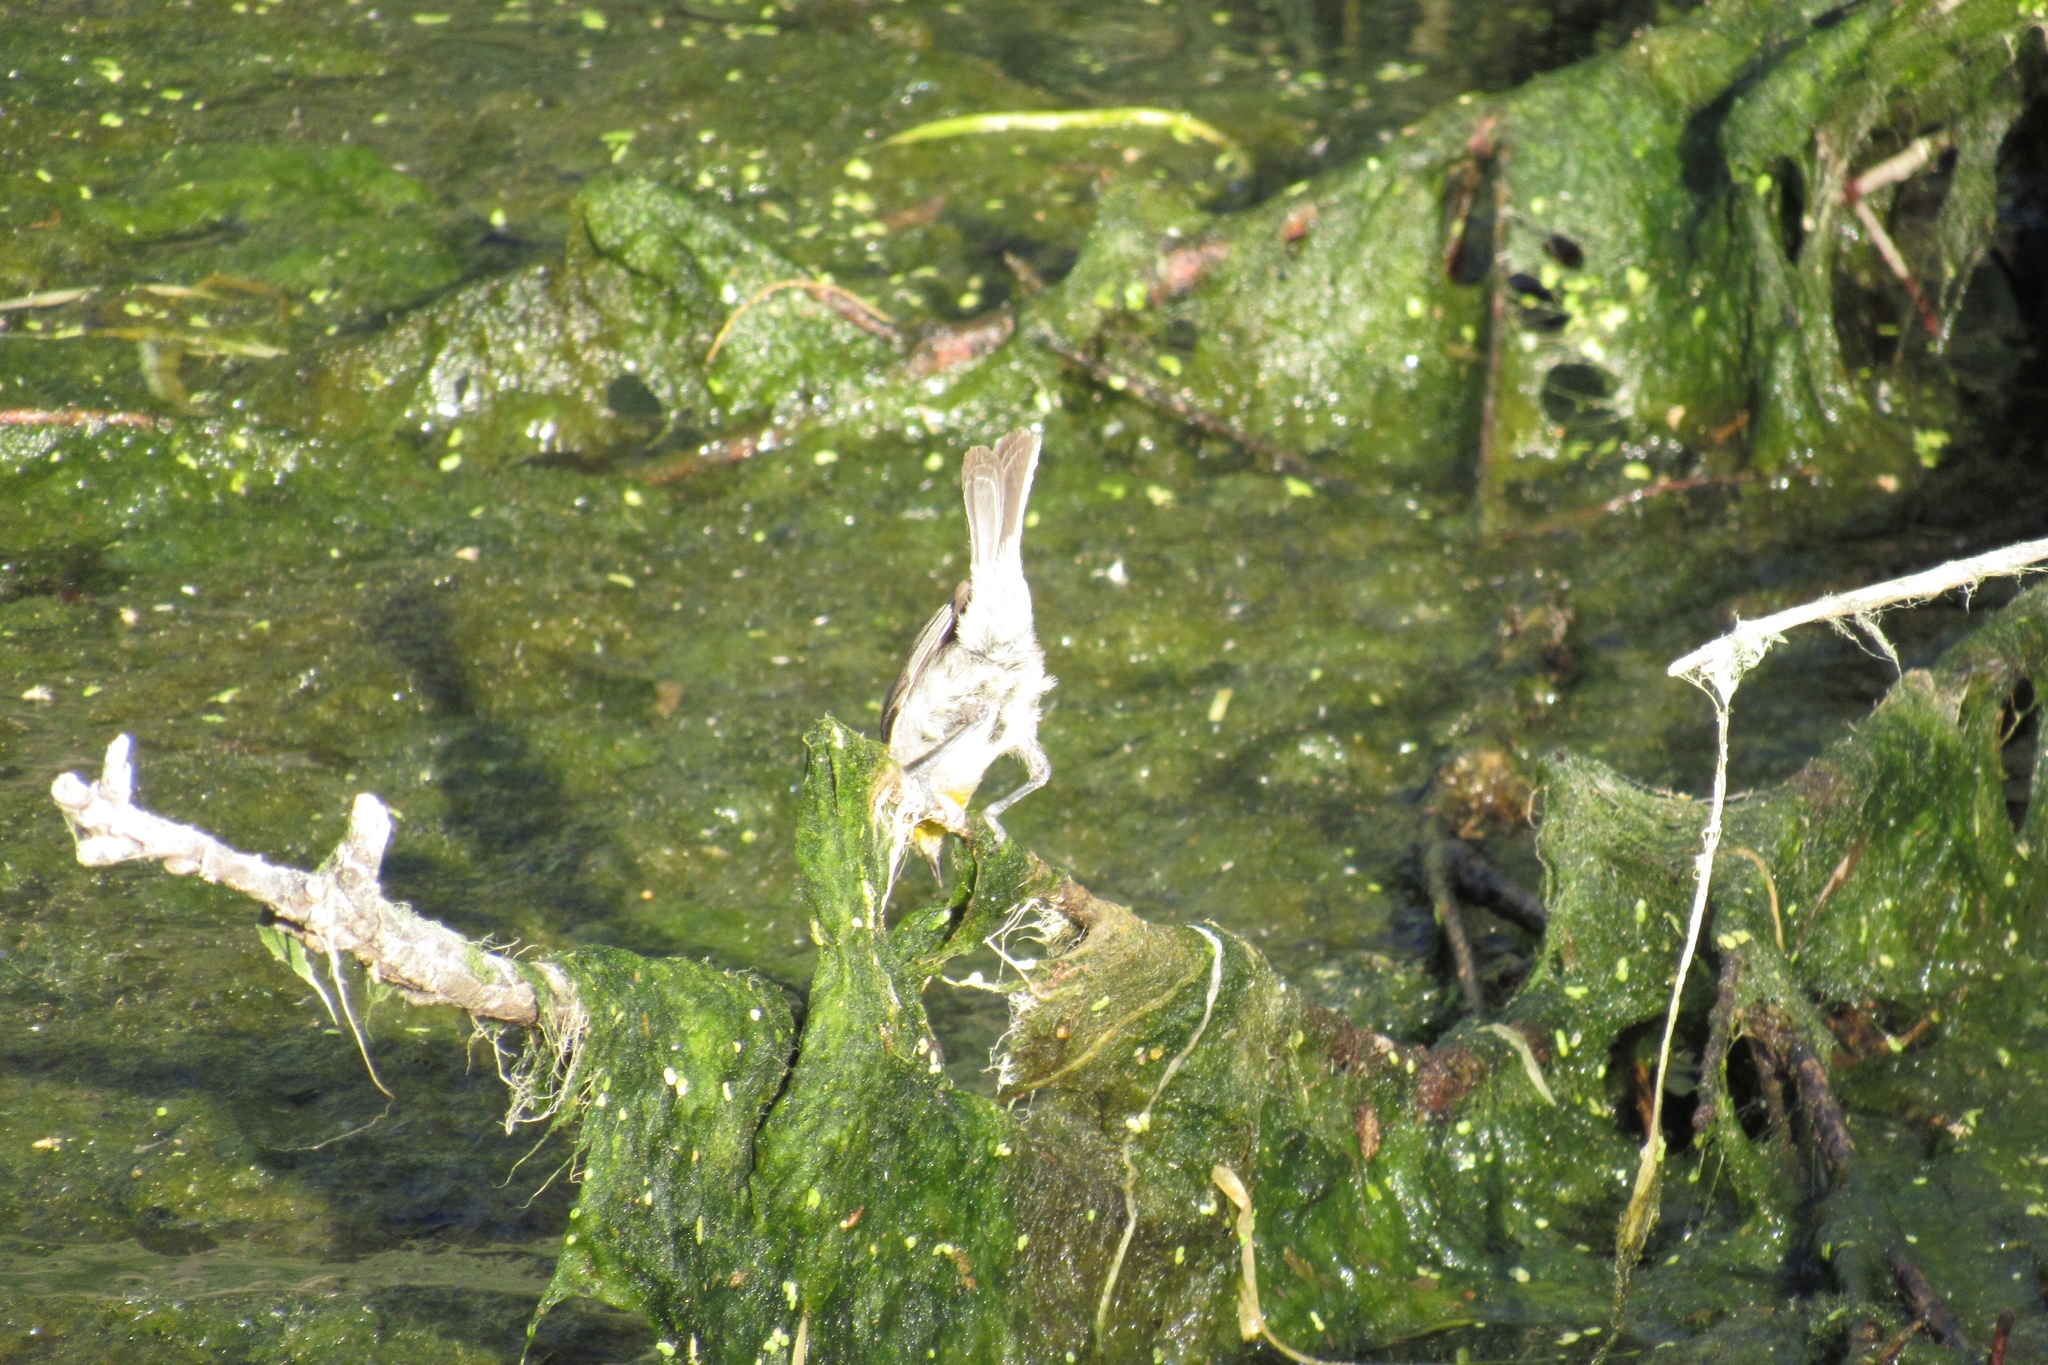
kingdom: Animalia
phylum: Chordata
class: Aves
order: Passeriformes
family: Remizidae
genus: Auriparus
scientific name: Auriparus flaviceps
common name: Verdin
